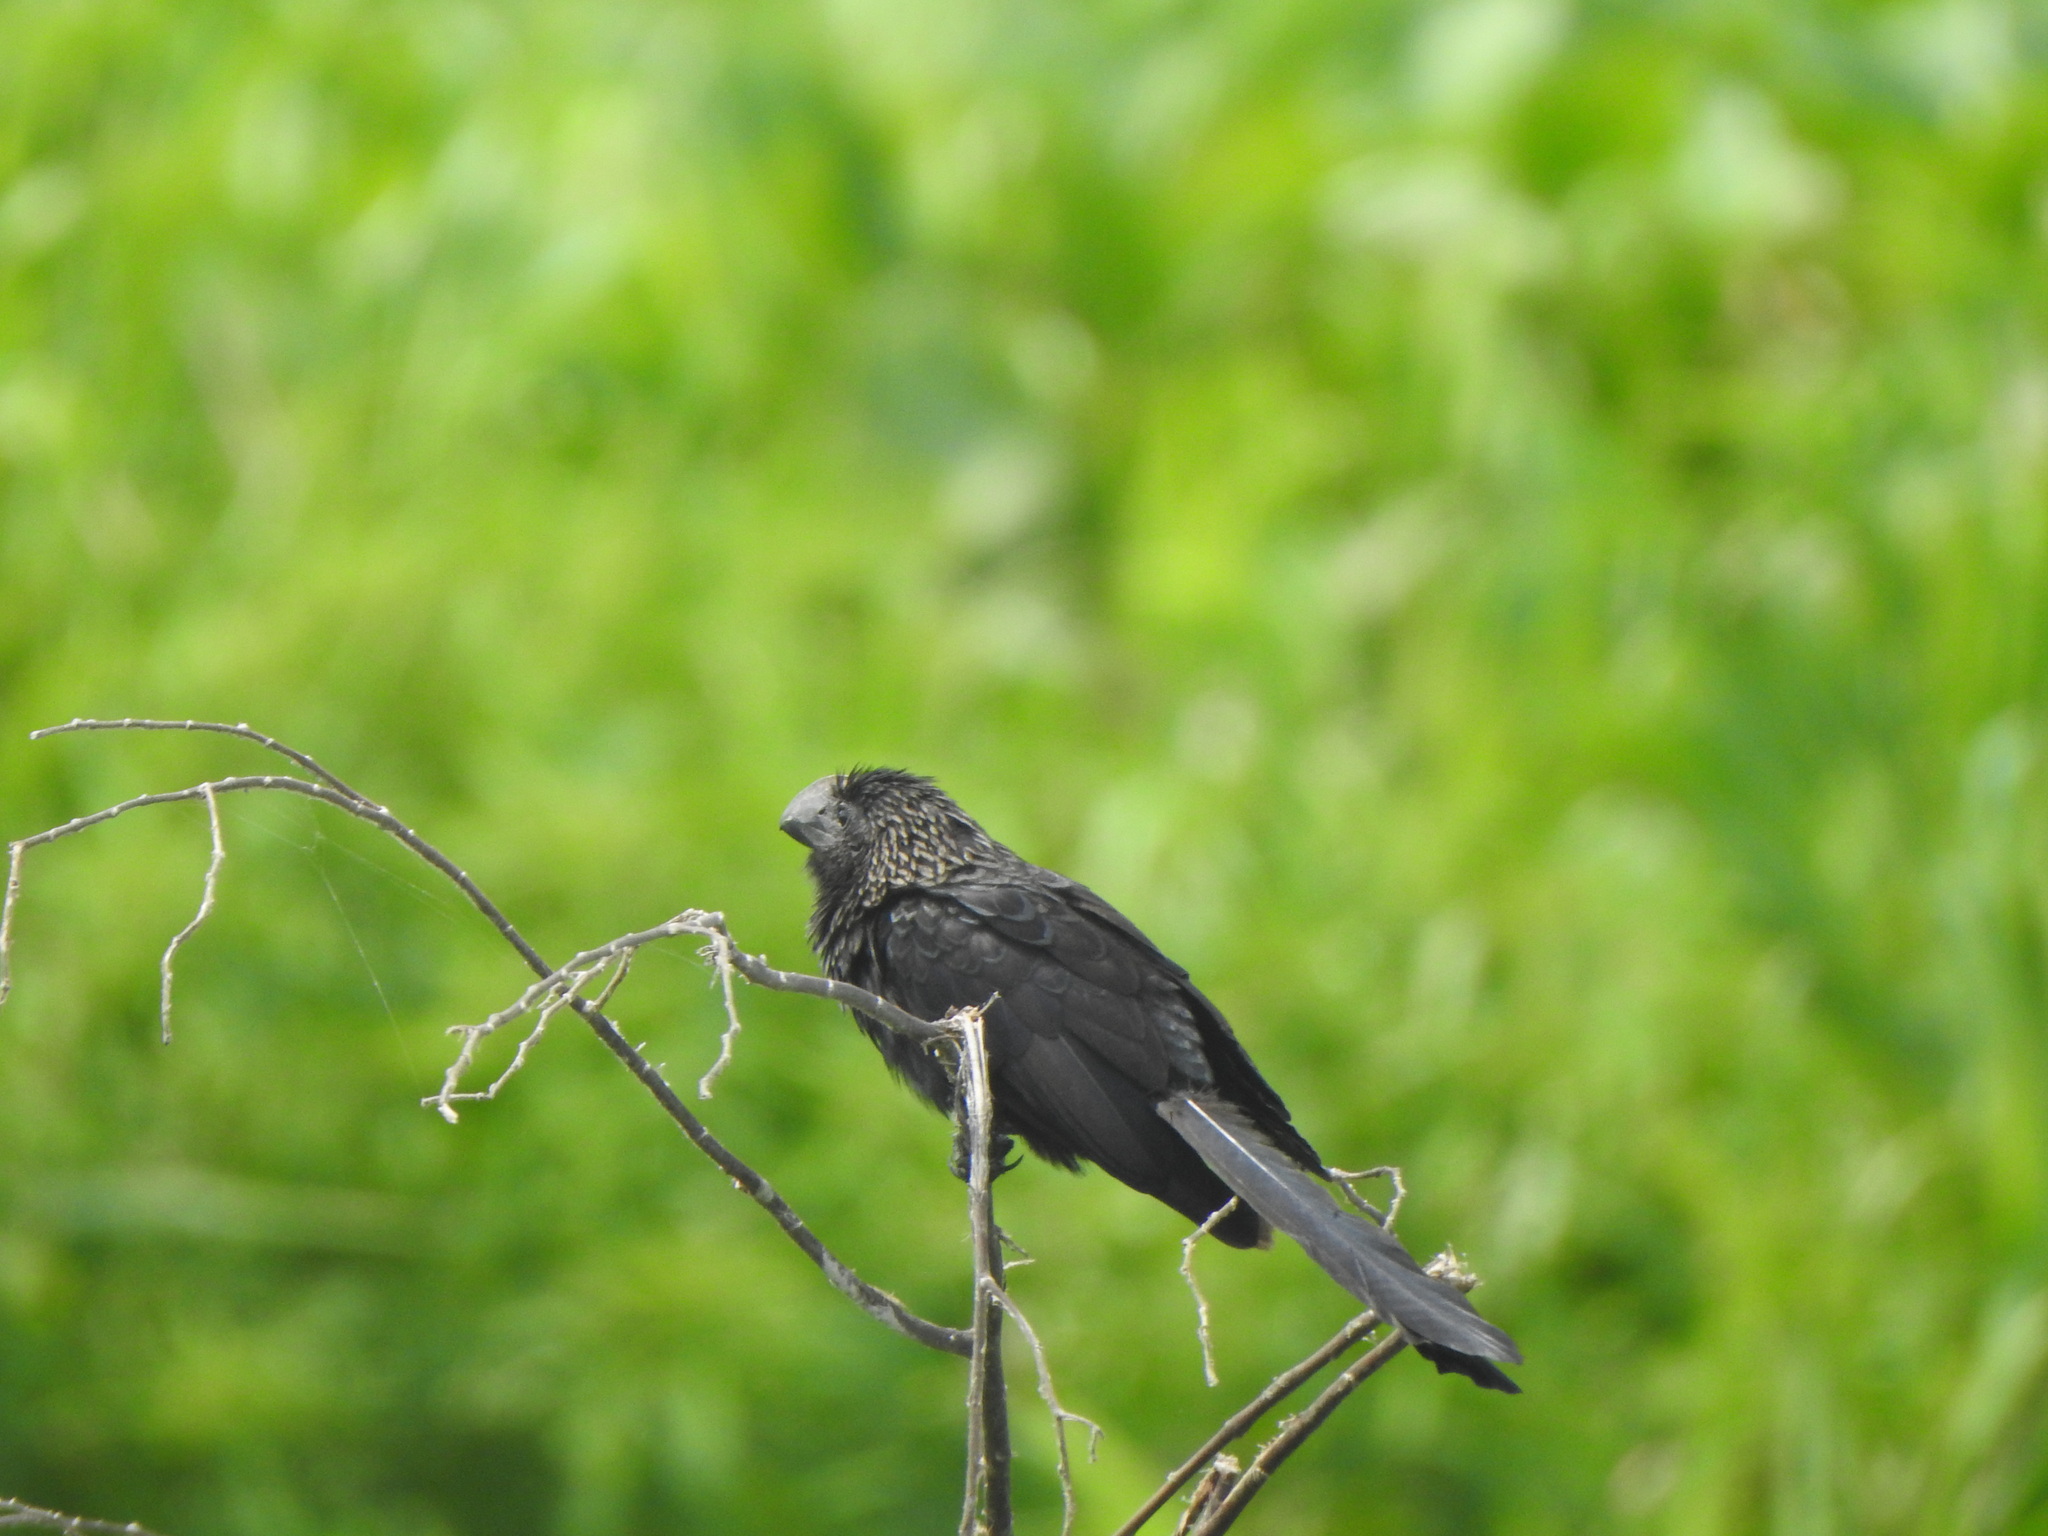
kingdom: Animalia
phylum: Chordata
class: Aves
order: Cuculiformes
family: Cuculidae
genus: Crotophaga
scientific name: Crotophaga ani
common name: Smooth-billed ani
